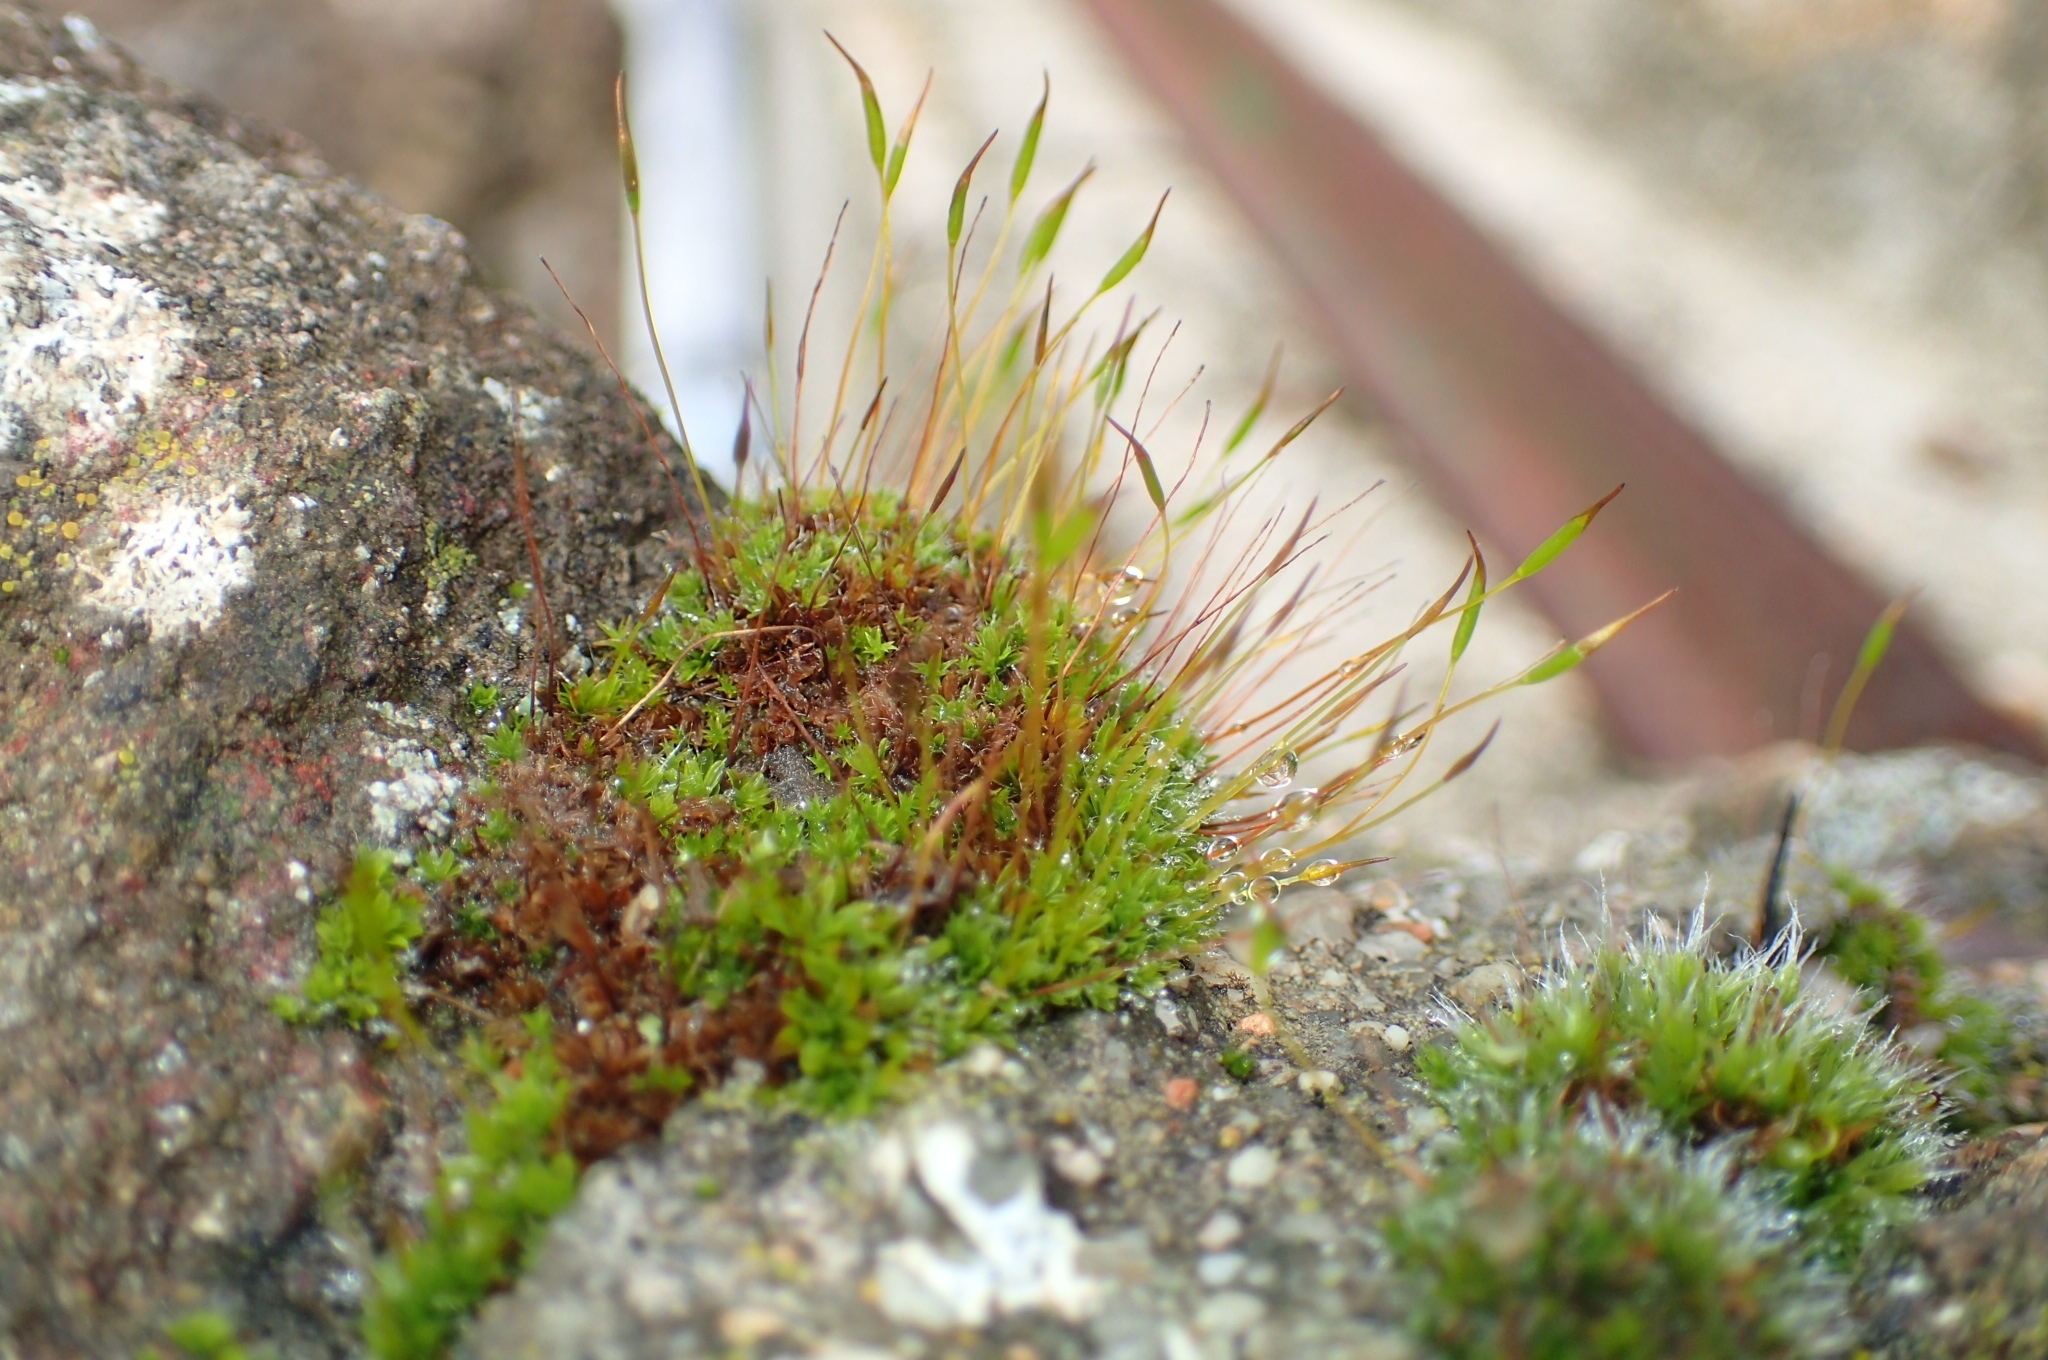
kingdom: Plantae
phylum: Bryophyta
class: Bryopsida
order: Pottiales
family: Pottiaceae
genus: Tortula
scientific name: Tortula muralis
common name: Wall screw-moss
